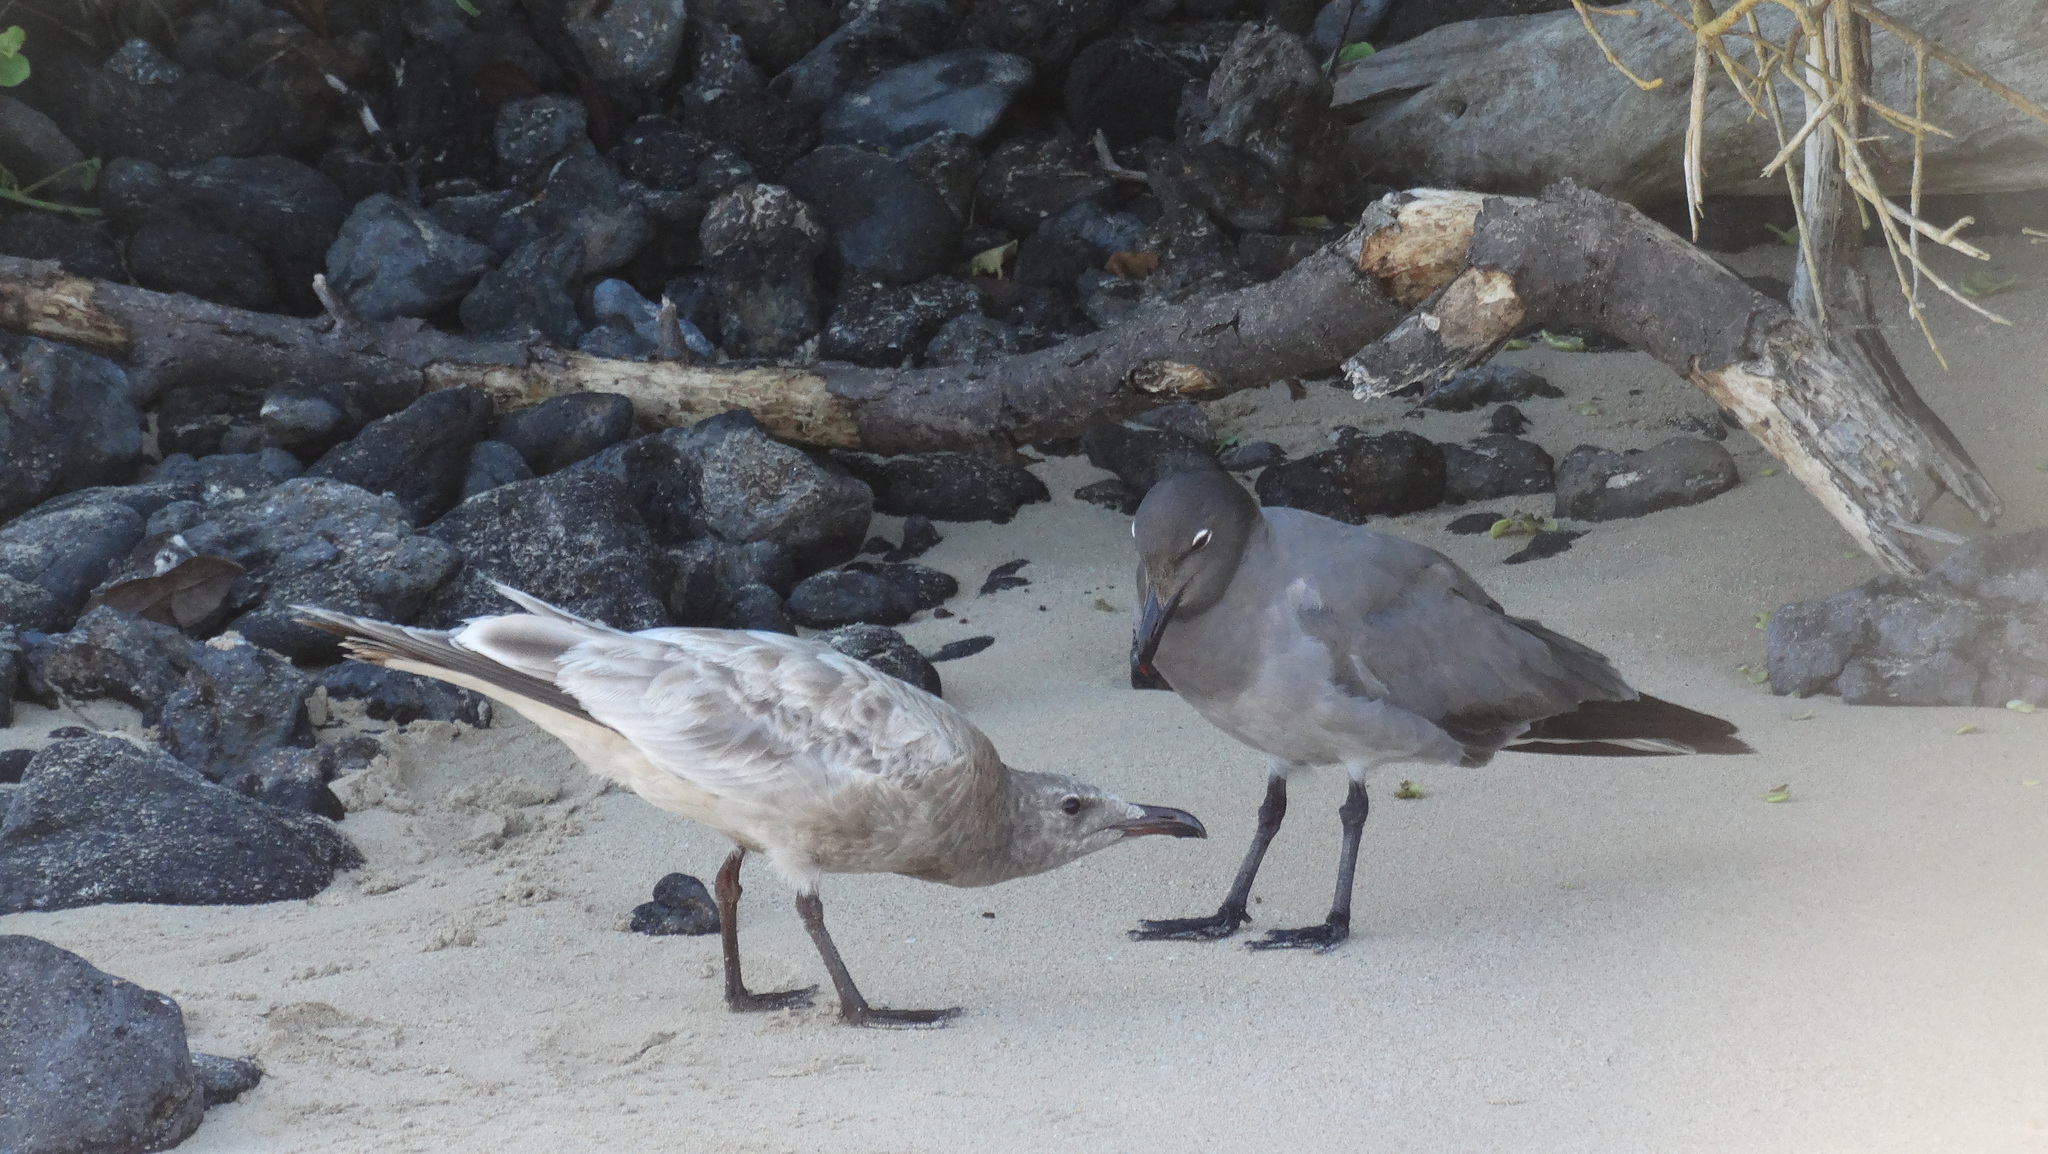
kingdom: Animalia
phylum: Chordata
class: Aves
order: Charadriiformes
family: Laridae
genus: Leucophaeus
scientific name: Leucophaeus fuliginosus
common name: Lava gull
